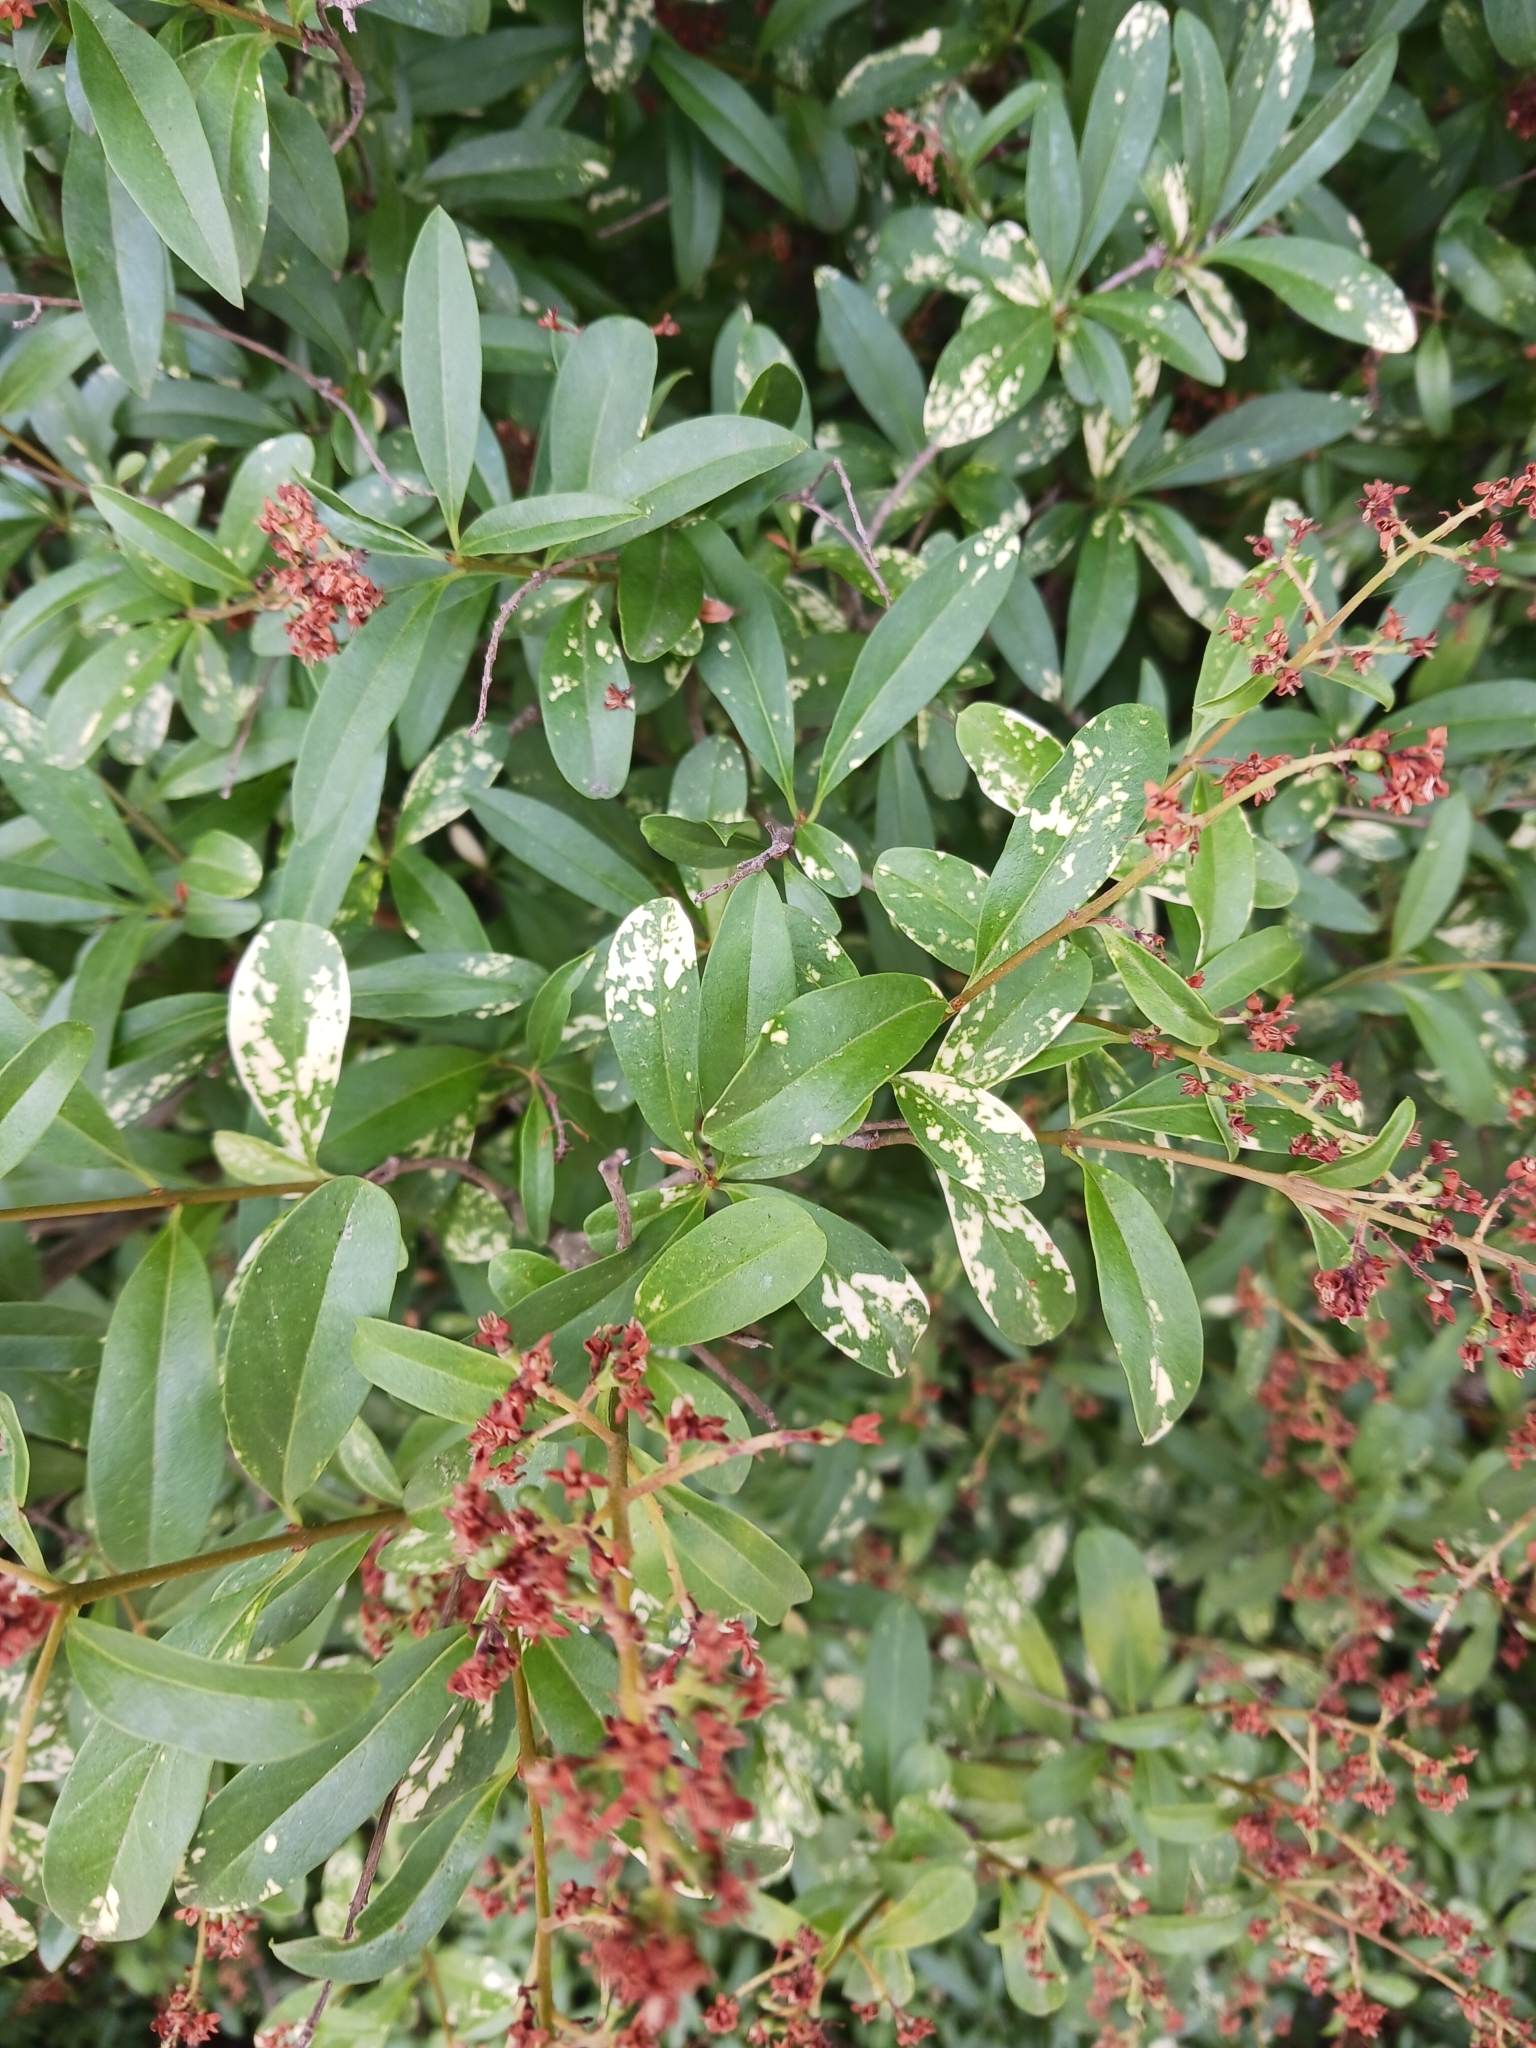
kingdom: Plantae
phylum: Tracheophyta
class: Magnoliopsida
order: Lamiales
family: Oleaceae
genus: Ligustrum
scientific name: Ligustrum vulgare
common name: Wild privet
